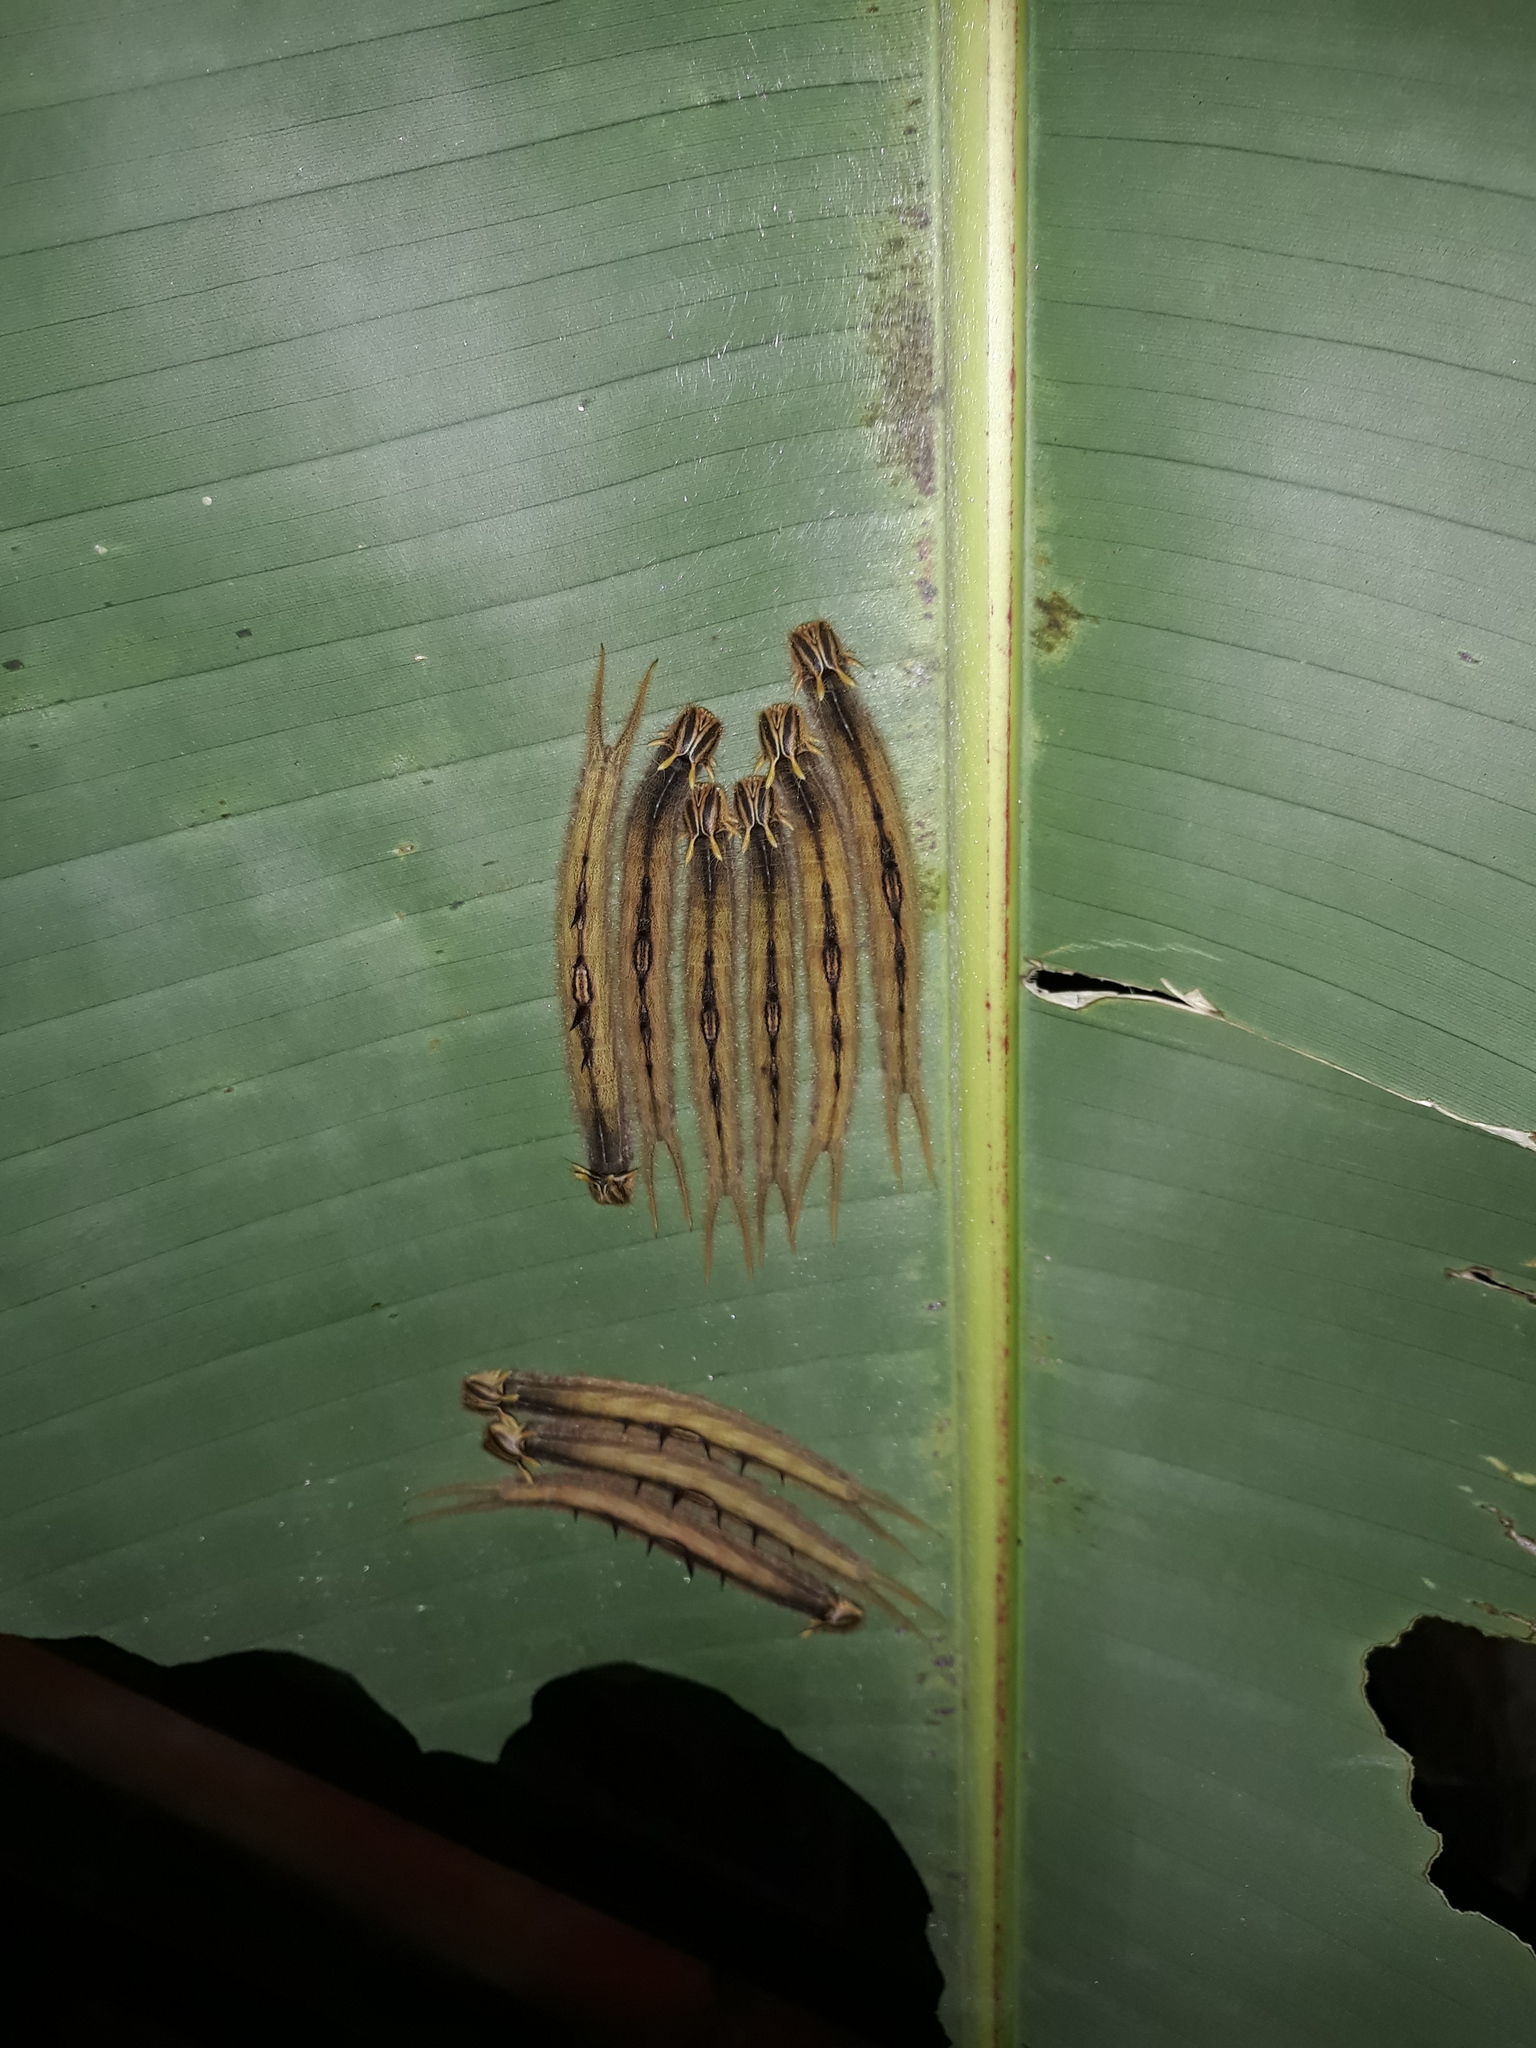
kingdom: Animalia
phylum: Arthropoda
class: Insecta
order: Lepidoptera
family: Nymphalidae
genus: Caligo
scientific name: Caligo brasiliensis
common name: Dark owl-butterfly
